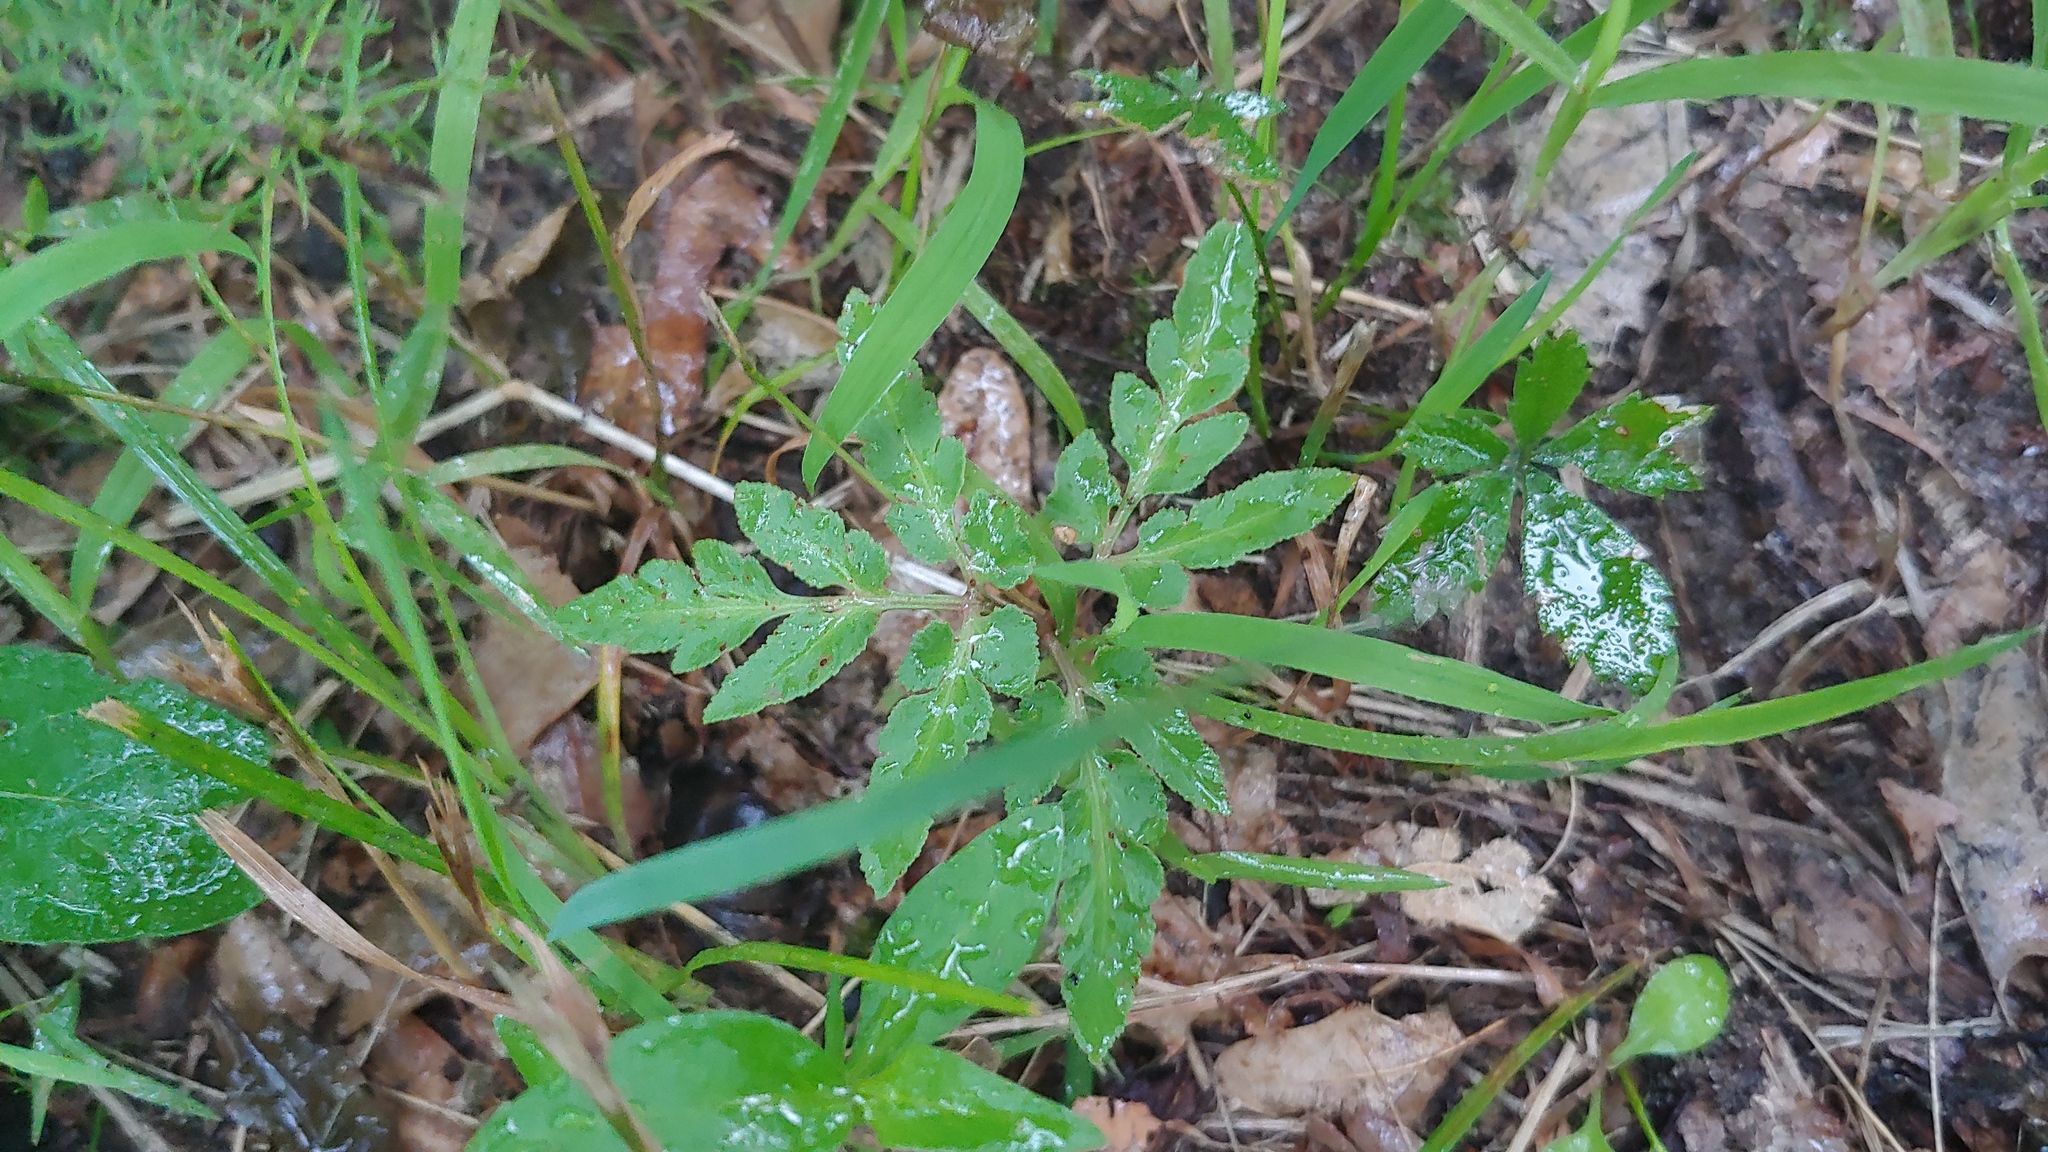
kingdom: Plantae
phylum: Tracheophyta
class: Polypodiopsida
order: Ophioglossales
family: Ophioglossaceae
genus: Sceptridium
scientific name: Sceptridium dissectum
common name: Cut-leaved grapefern
